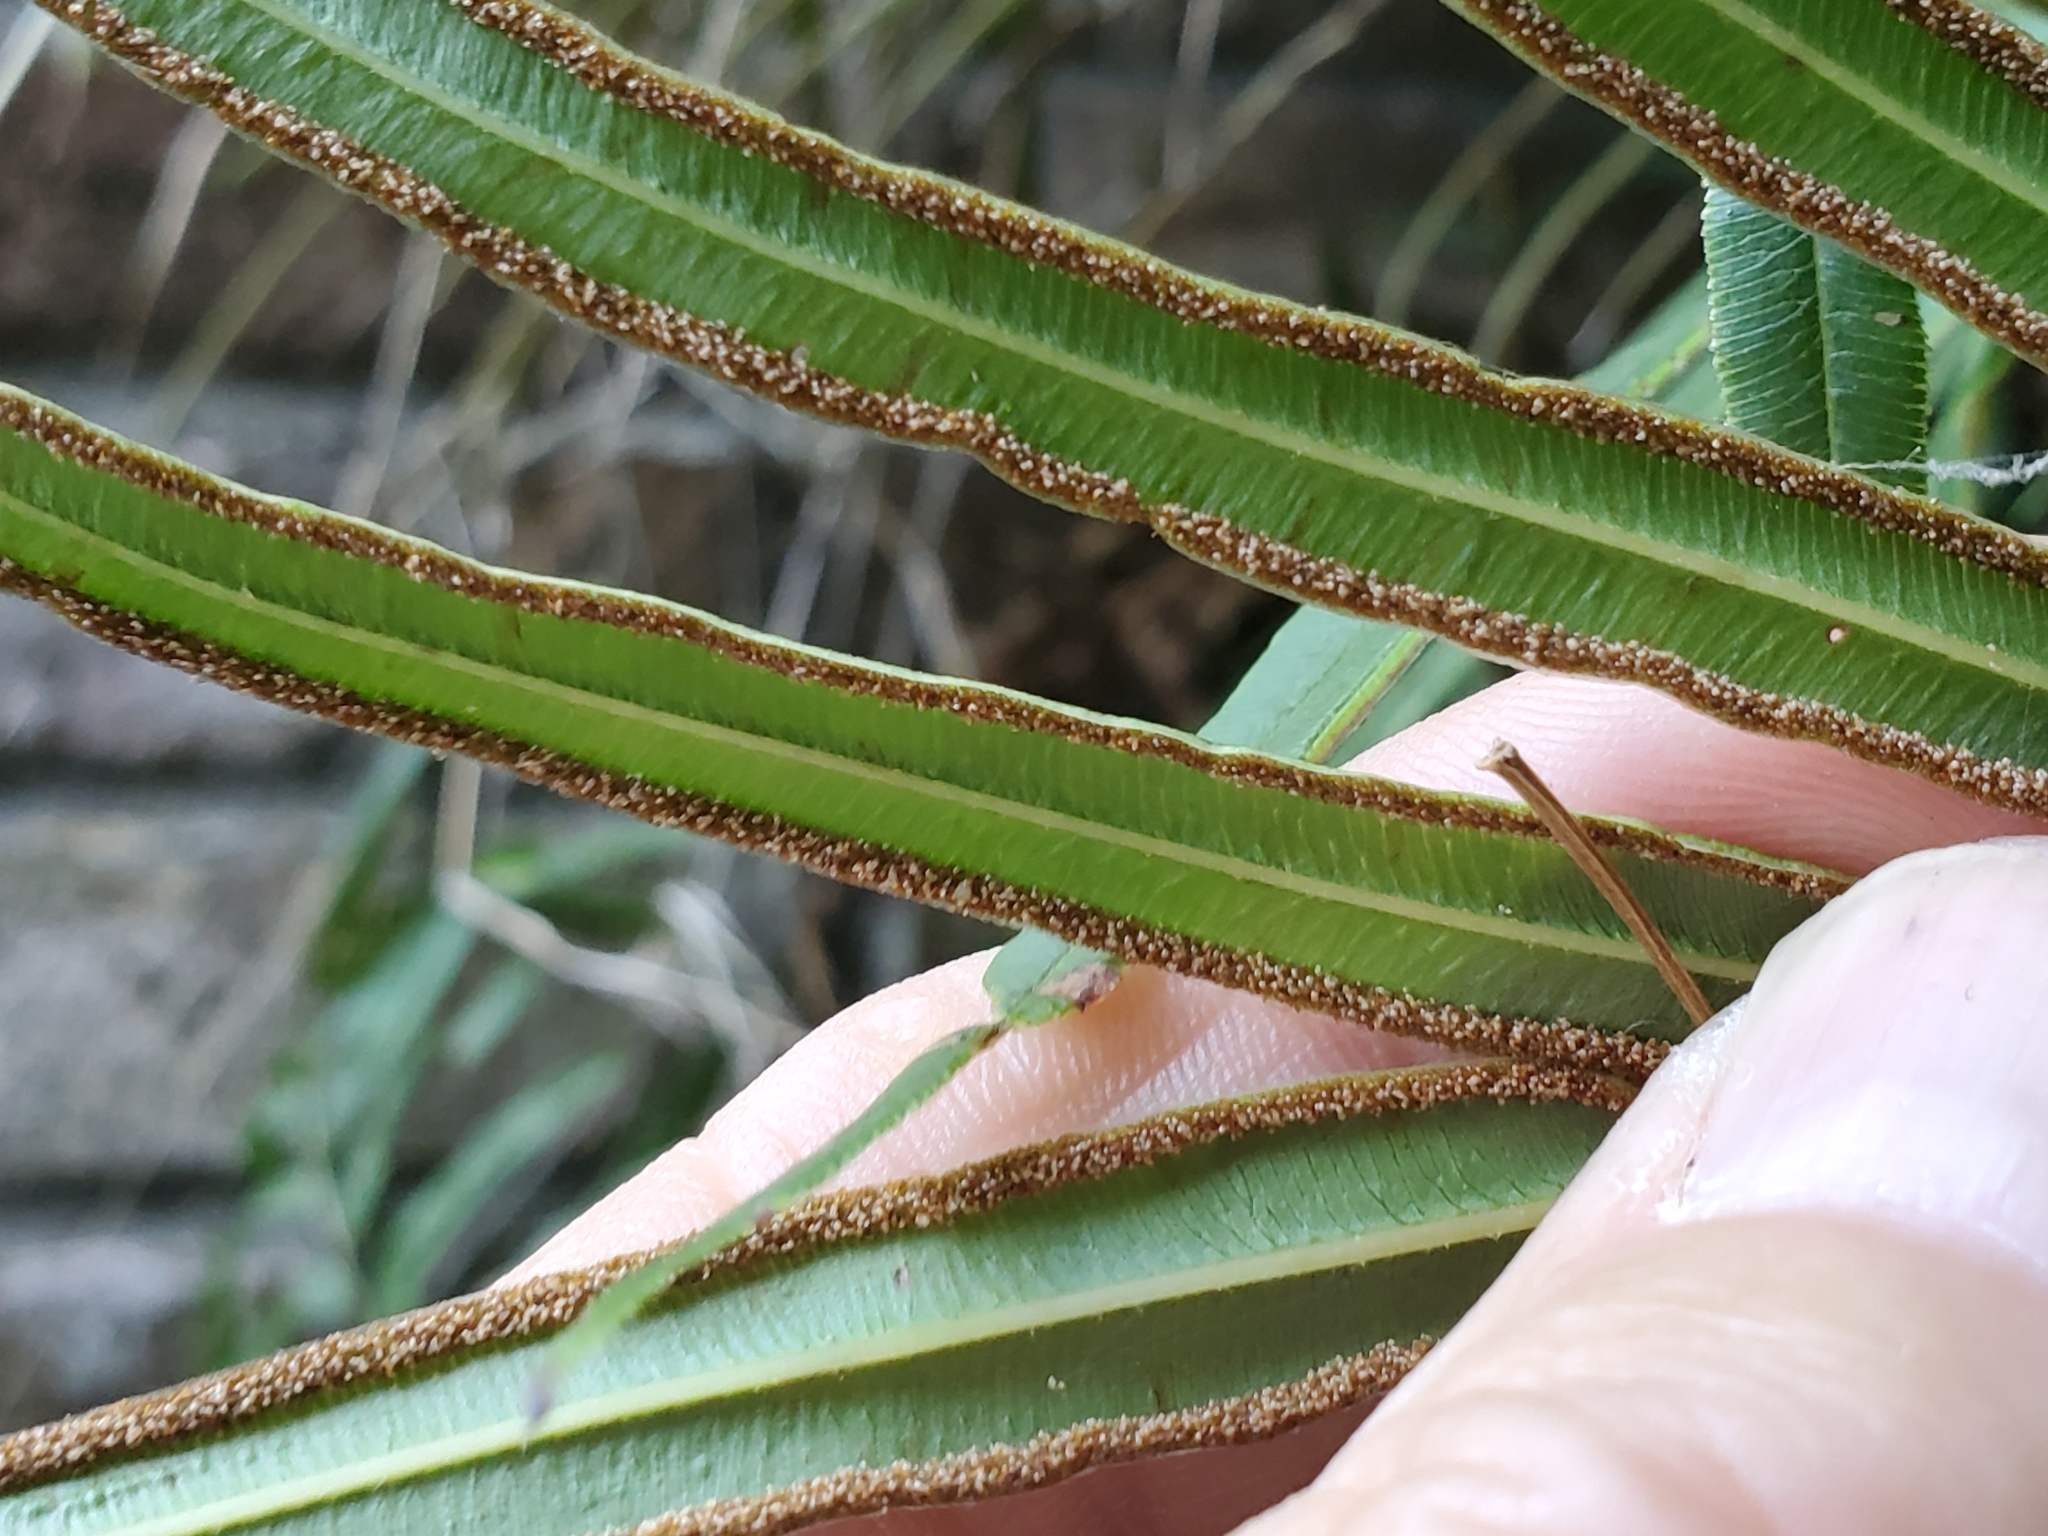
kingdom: Plantae
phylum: Tracheophyta
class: Polypodiopsida
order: Polypodiales
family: Pteridaceae
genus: Pteris
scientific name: Pteris vittata
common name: Ladder brake
